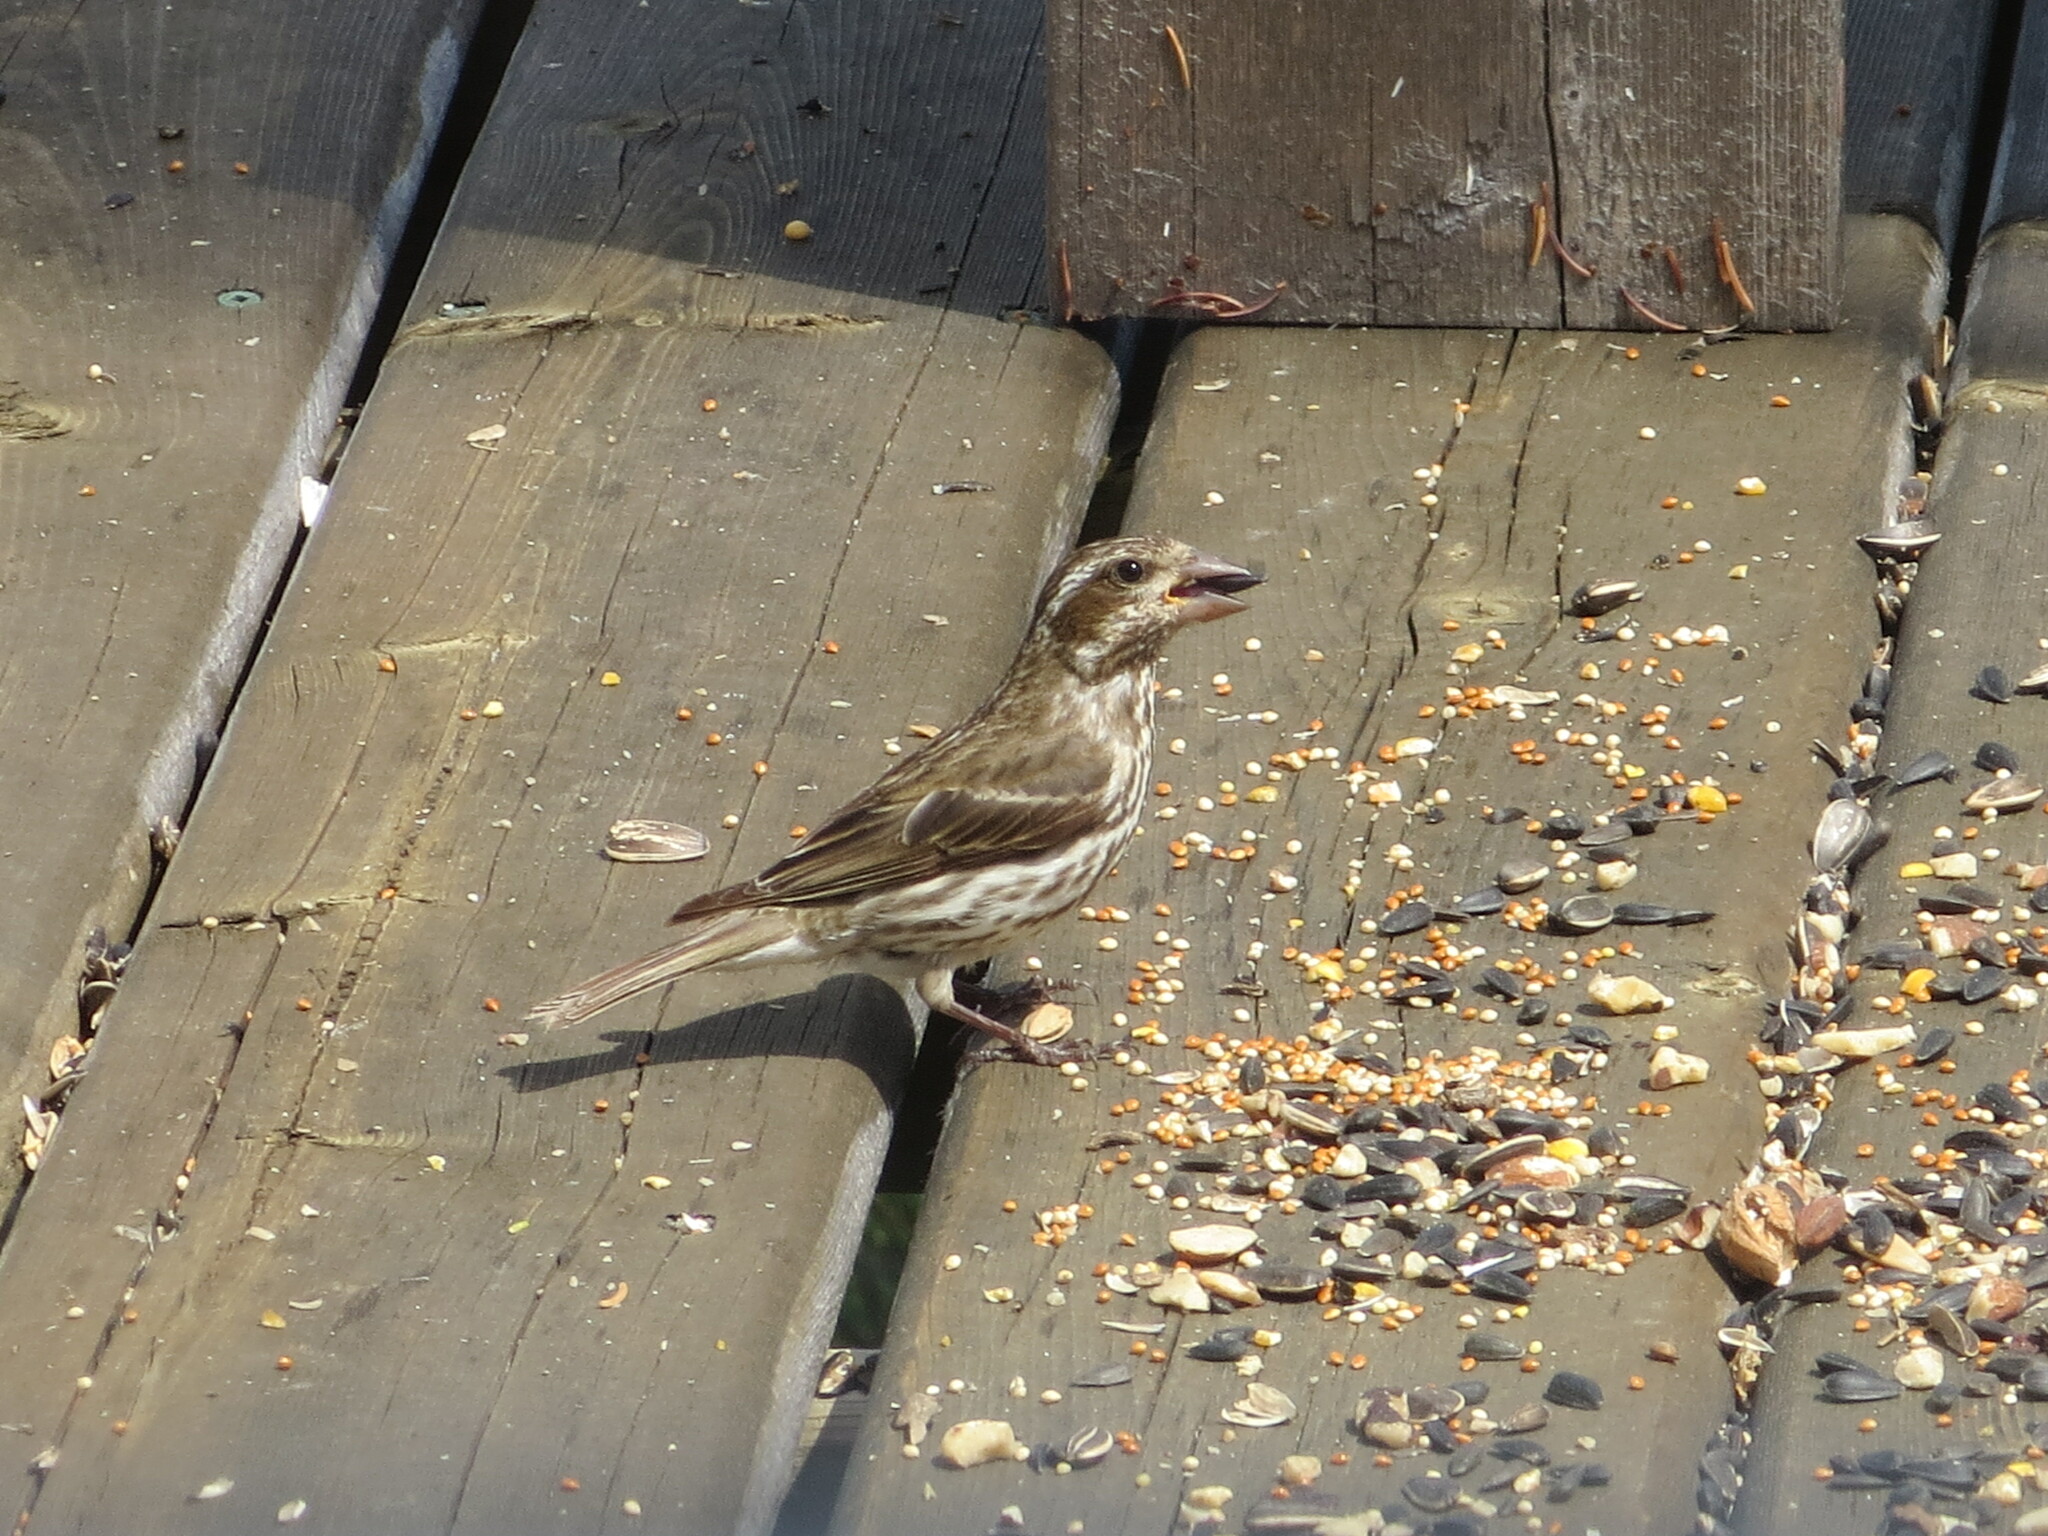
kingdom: Animalia
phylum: Chordata
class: Aves
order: Passeriformes
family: Fringillidae
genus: Haemorhous
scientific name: Haemorhous purpureus
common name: Purple finch
